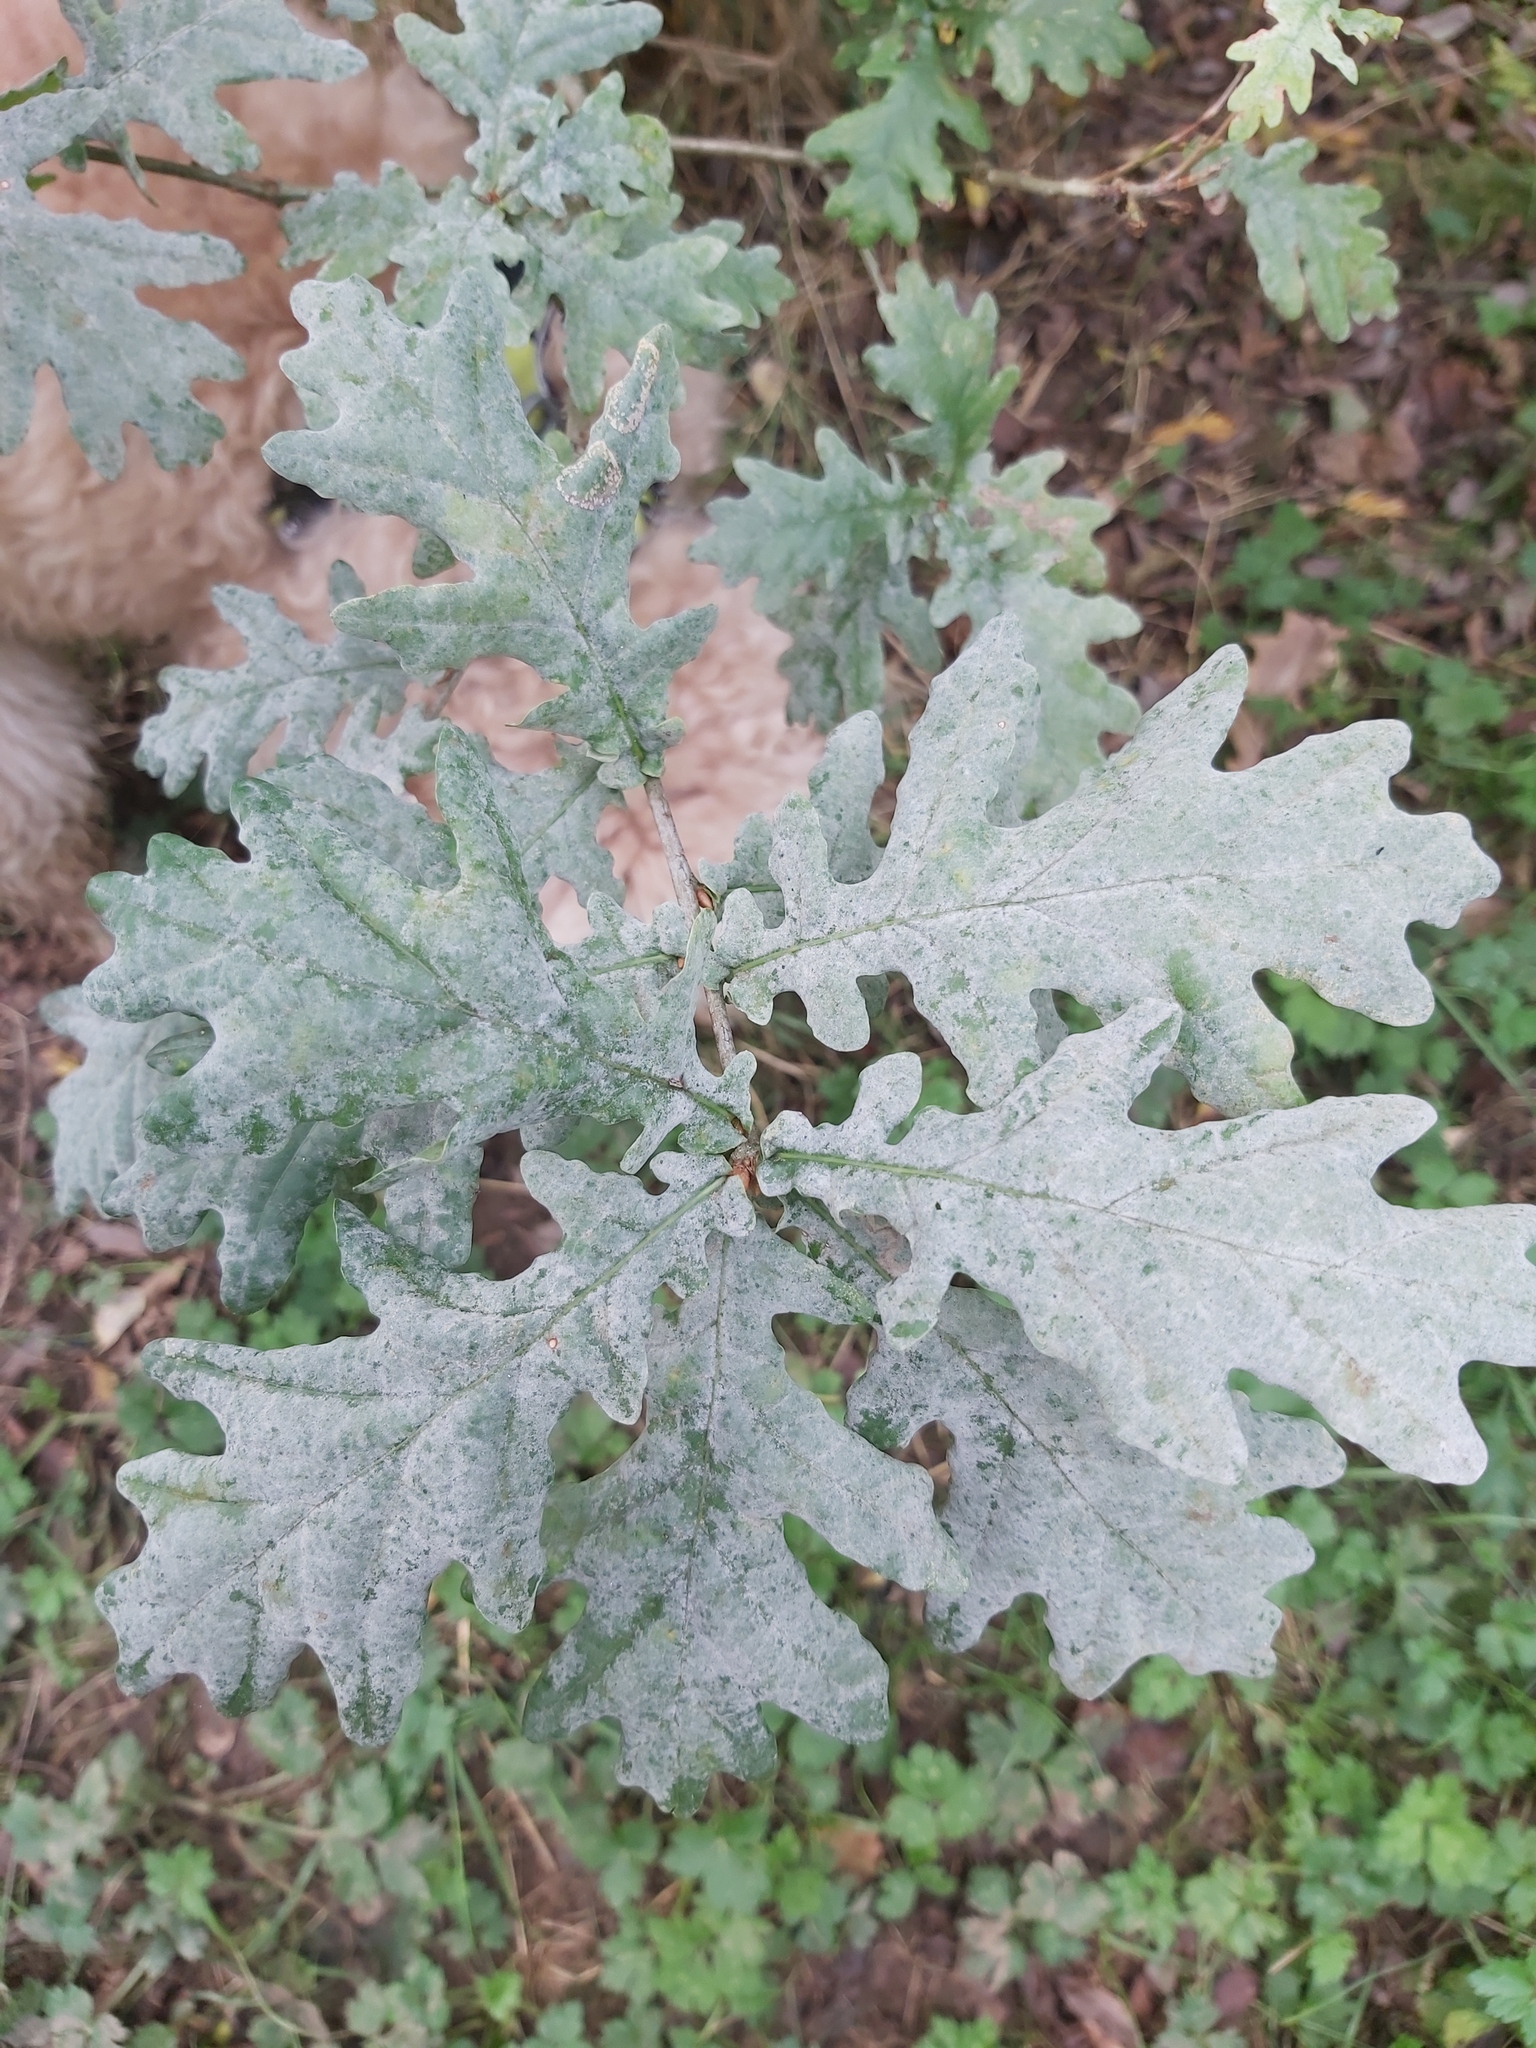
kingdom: Fungi
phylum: Ascomycota
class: Leotiomycetes
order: Helotiales
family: Erysiphaceae
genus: Erysiphe
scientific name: Erysiphe alphitoides
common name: Oak mildew
